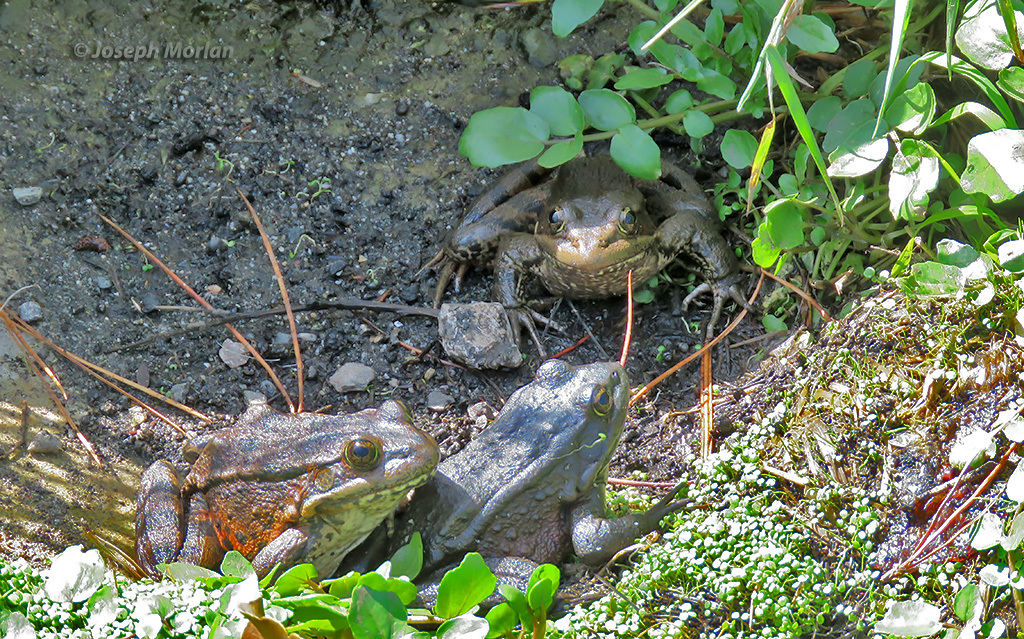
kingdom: Animalia
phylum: Chordata
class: Amphibia
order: Anura
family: Ranidae
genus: Rana
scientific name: Rana draytonii
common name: California red-legged frog
